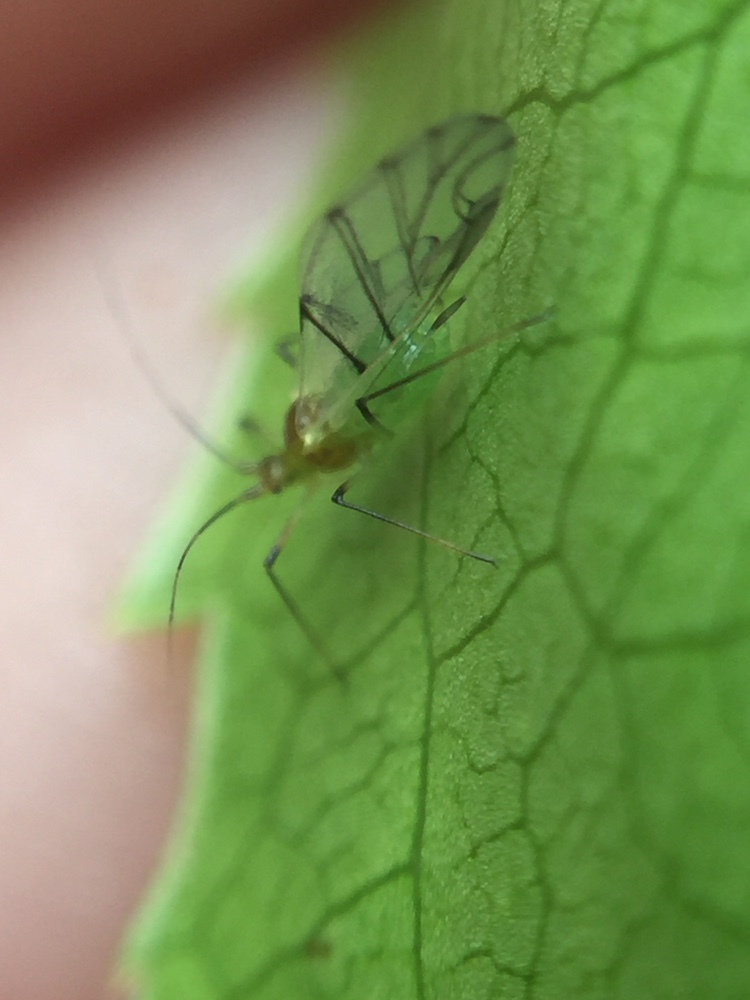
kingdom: Animalia
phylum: Arthropoda
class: Insecta
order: Hemiptera
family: Aphididae
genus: Wahlgreniella
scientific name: Wahlgreniella nervata
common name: Pale green aphid
